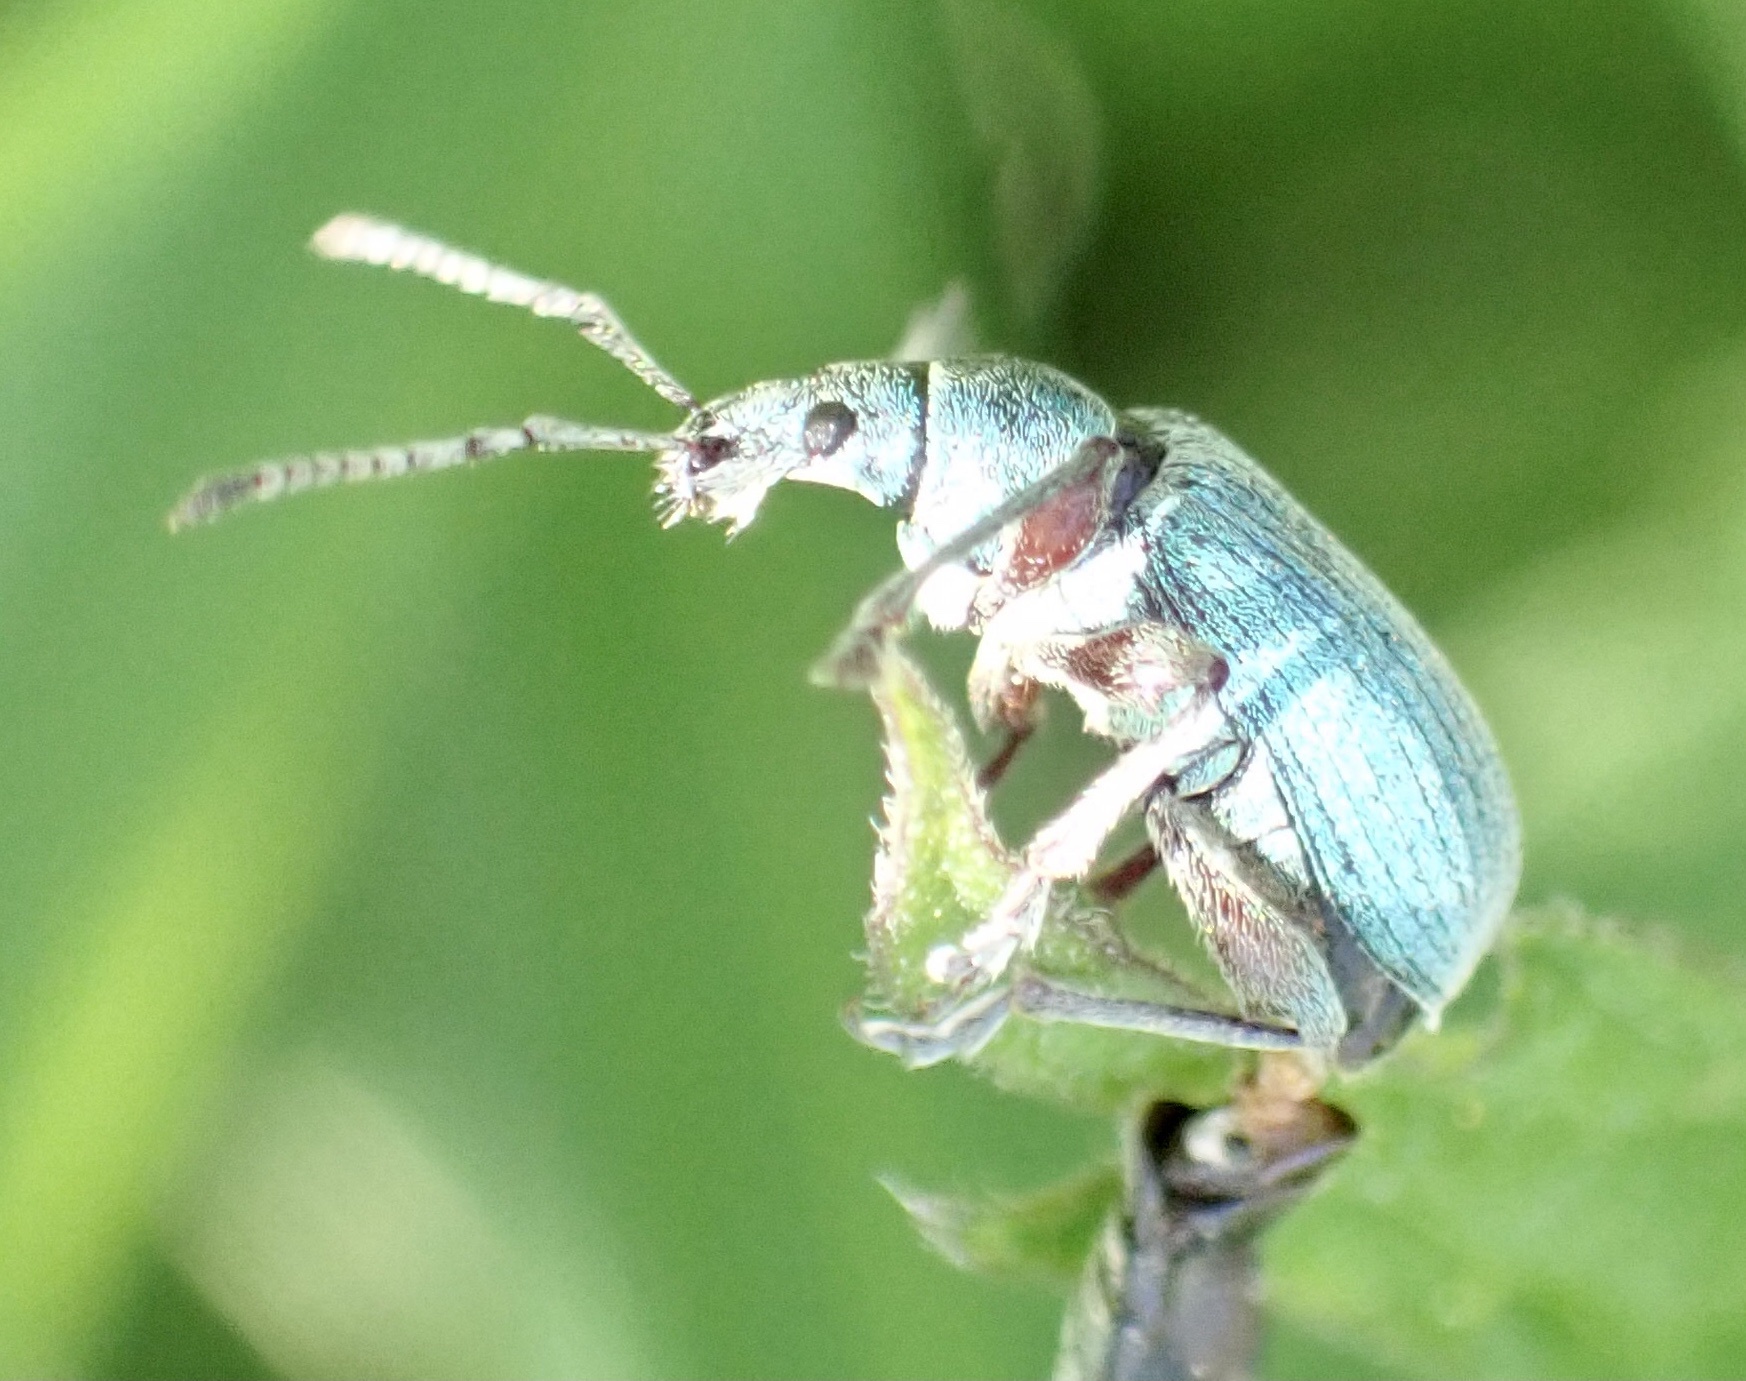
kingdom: Animalia
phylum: Arthropoda
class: Insecta
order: Coleoptera
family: Curculionidae
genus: Phyllobius
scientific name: Phyllobius pomaceus
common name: Green nettle weevil
